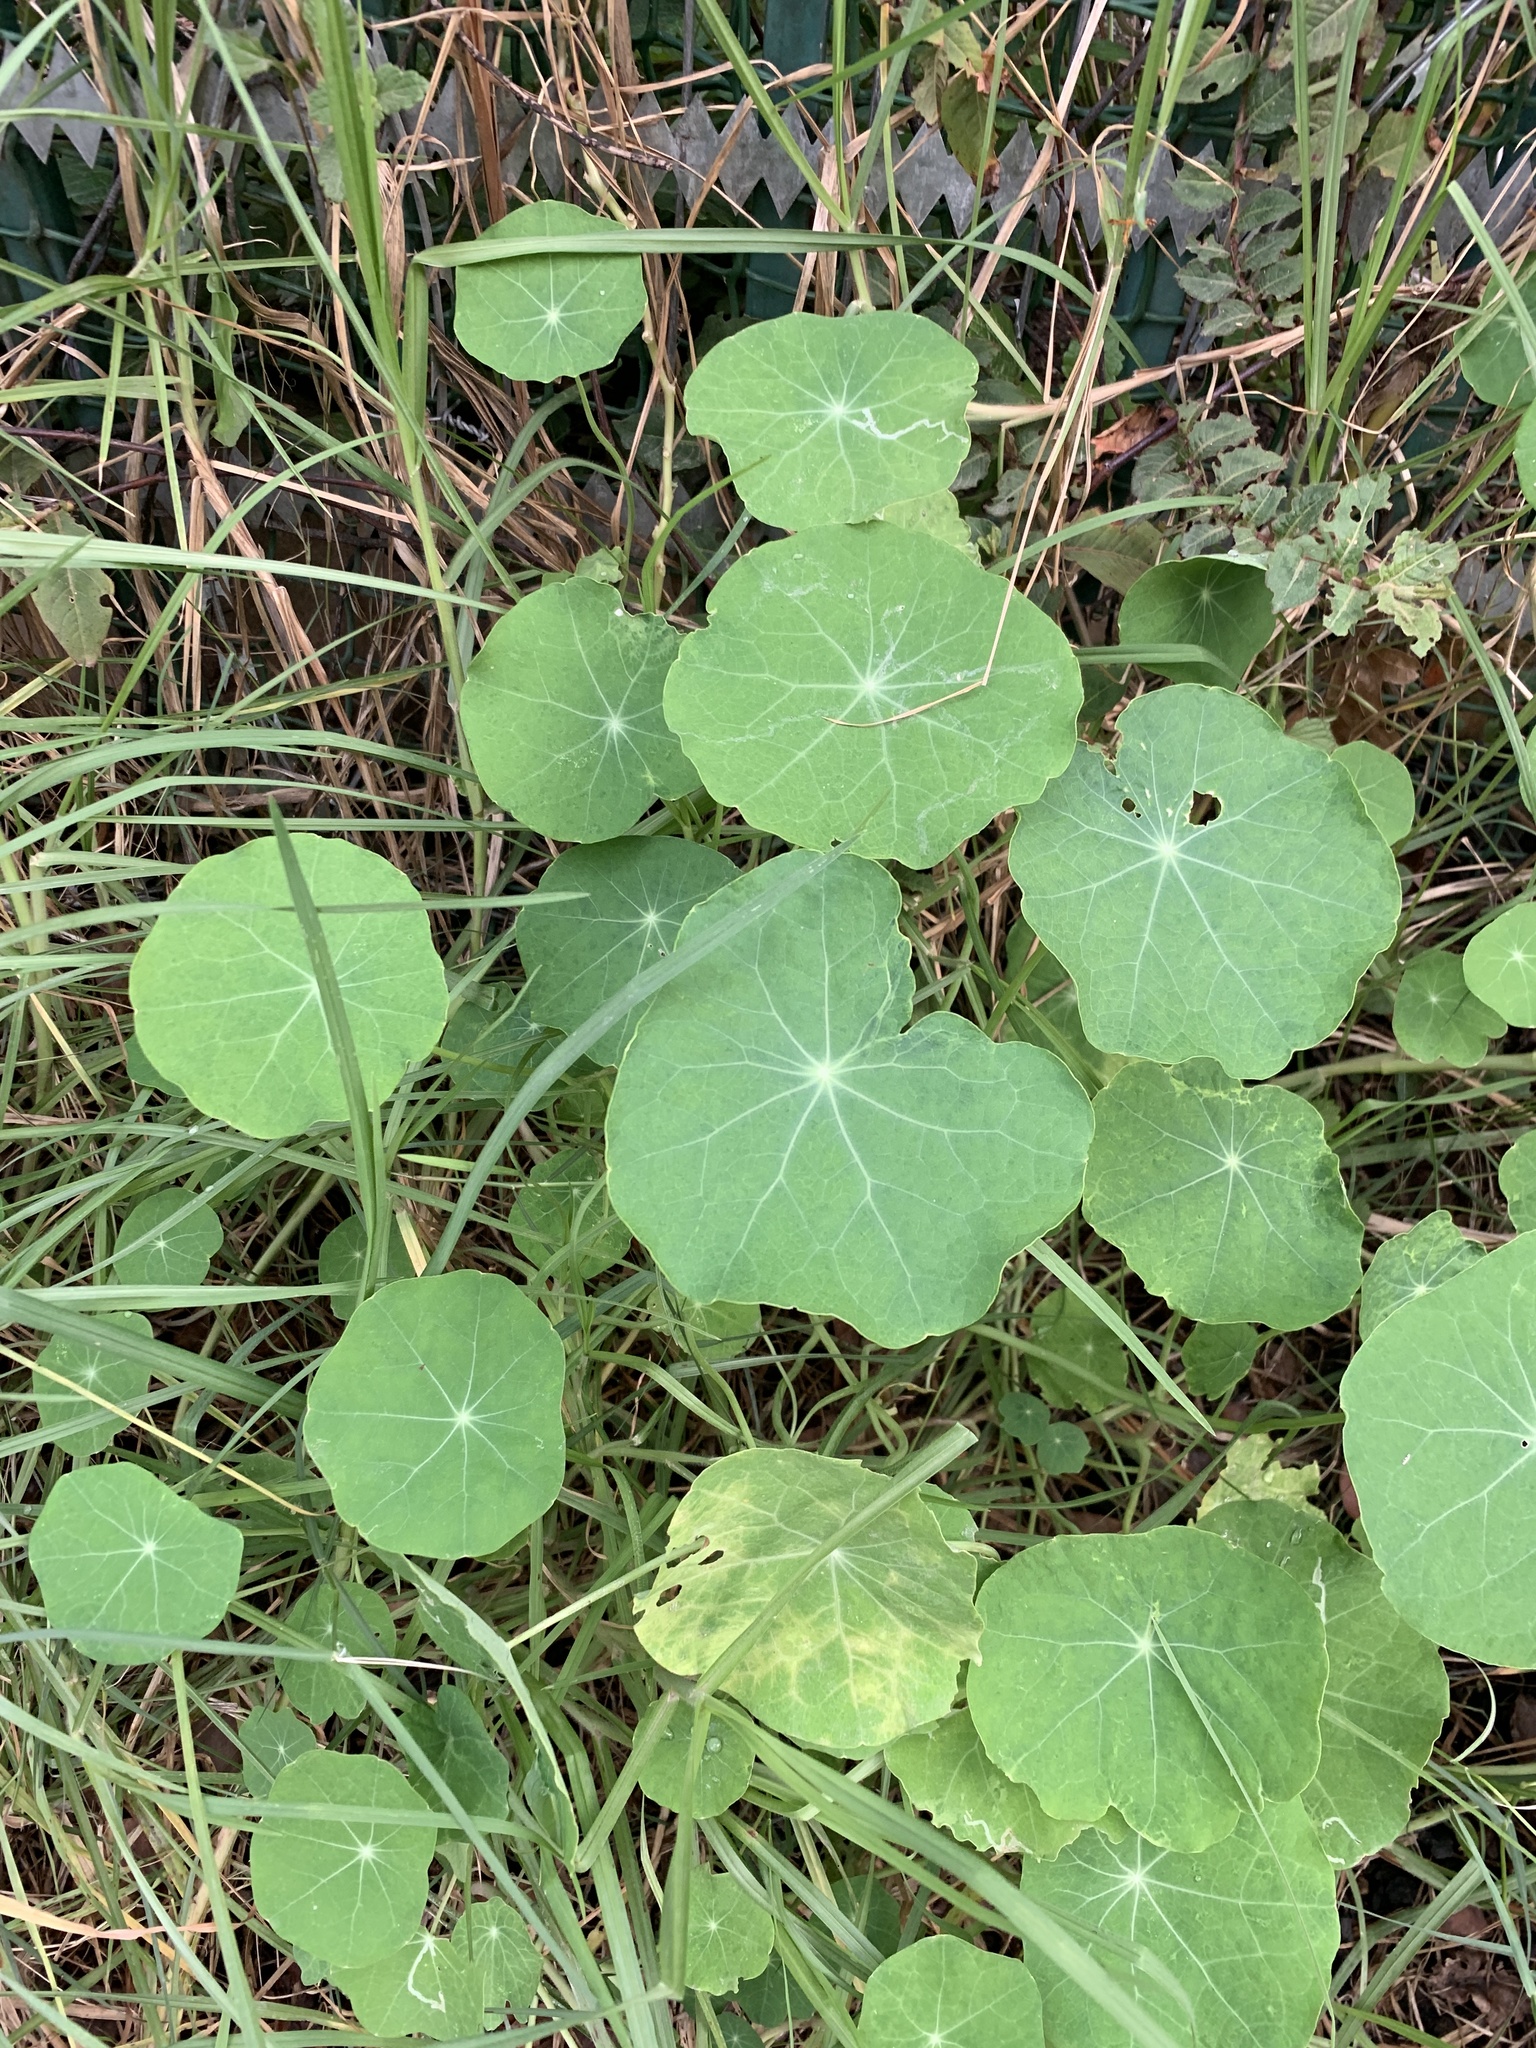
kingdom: Plantae
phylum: Tracheophyta
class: Magnoliopsida
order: Brassicales
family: Tropaeolaceae
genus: Tropaeolum
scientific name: Tropaeolum majus
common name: Nasturtium
